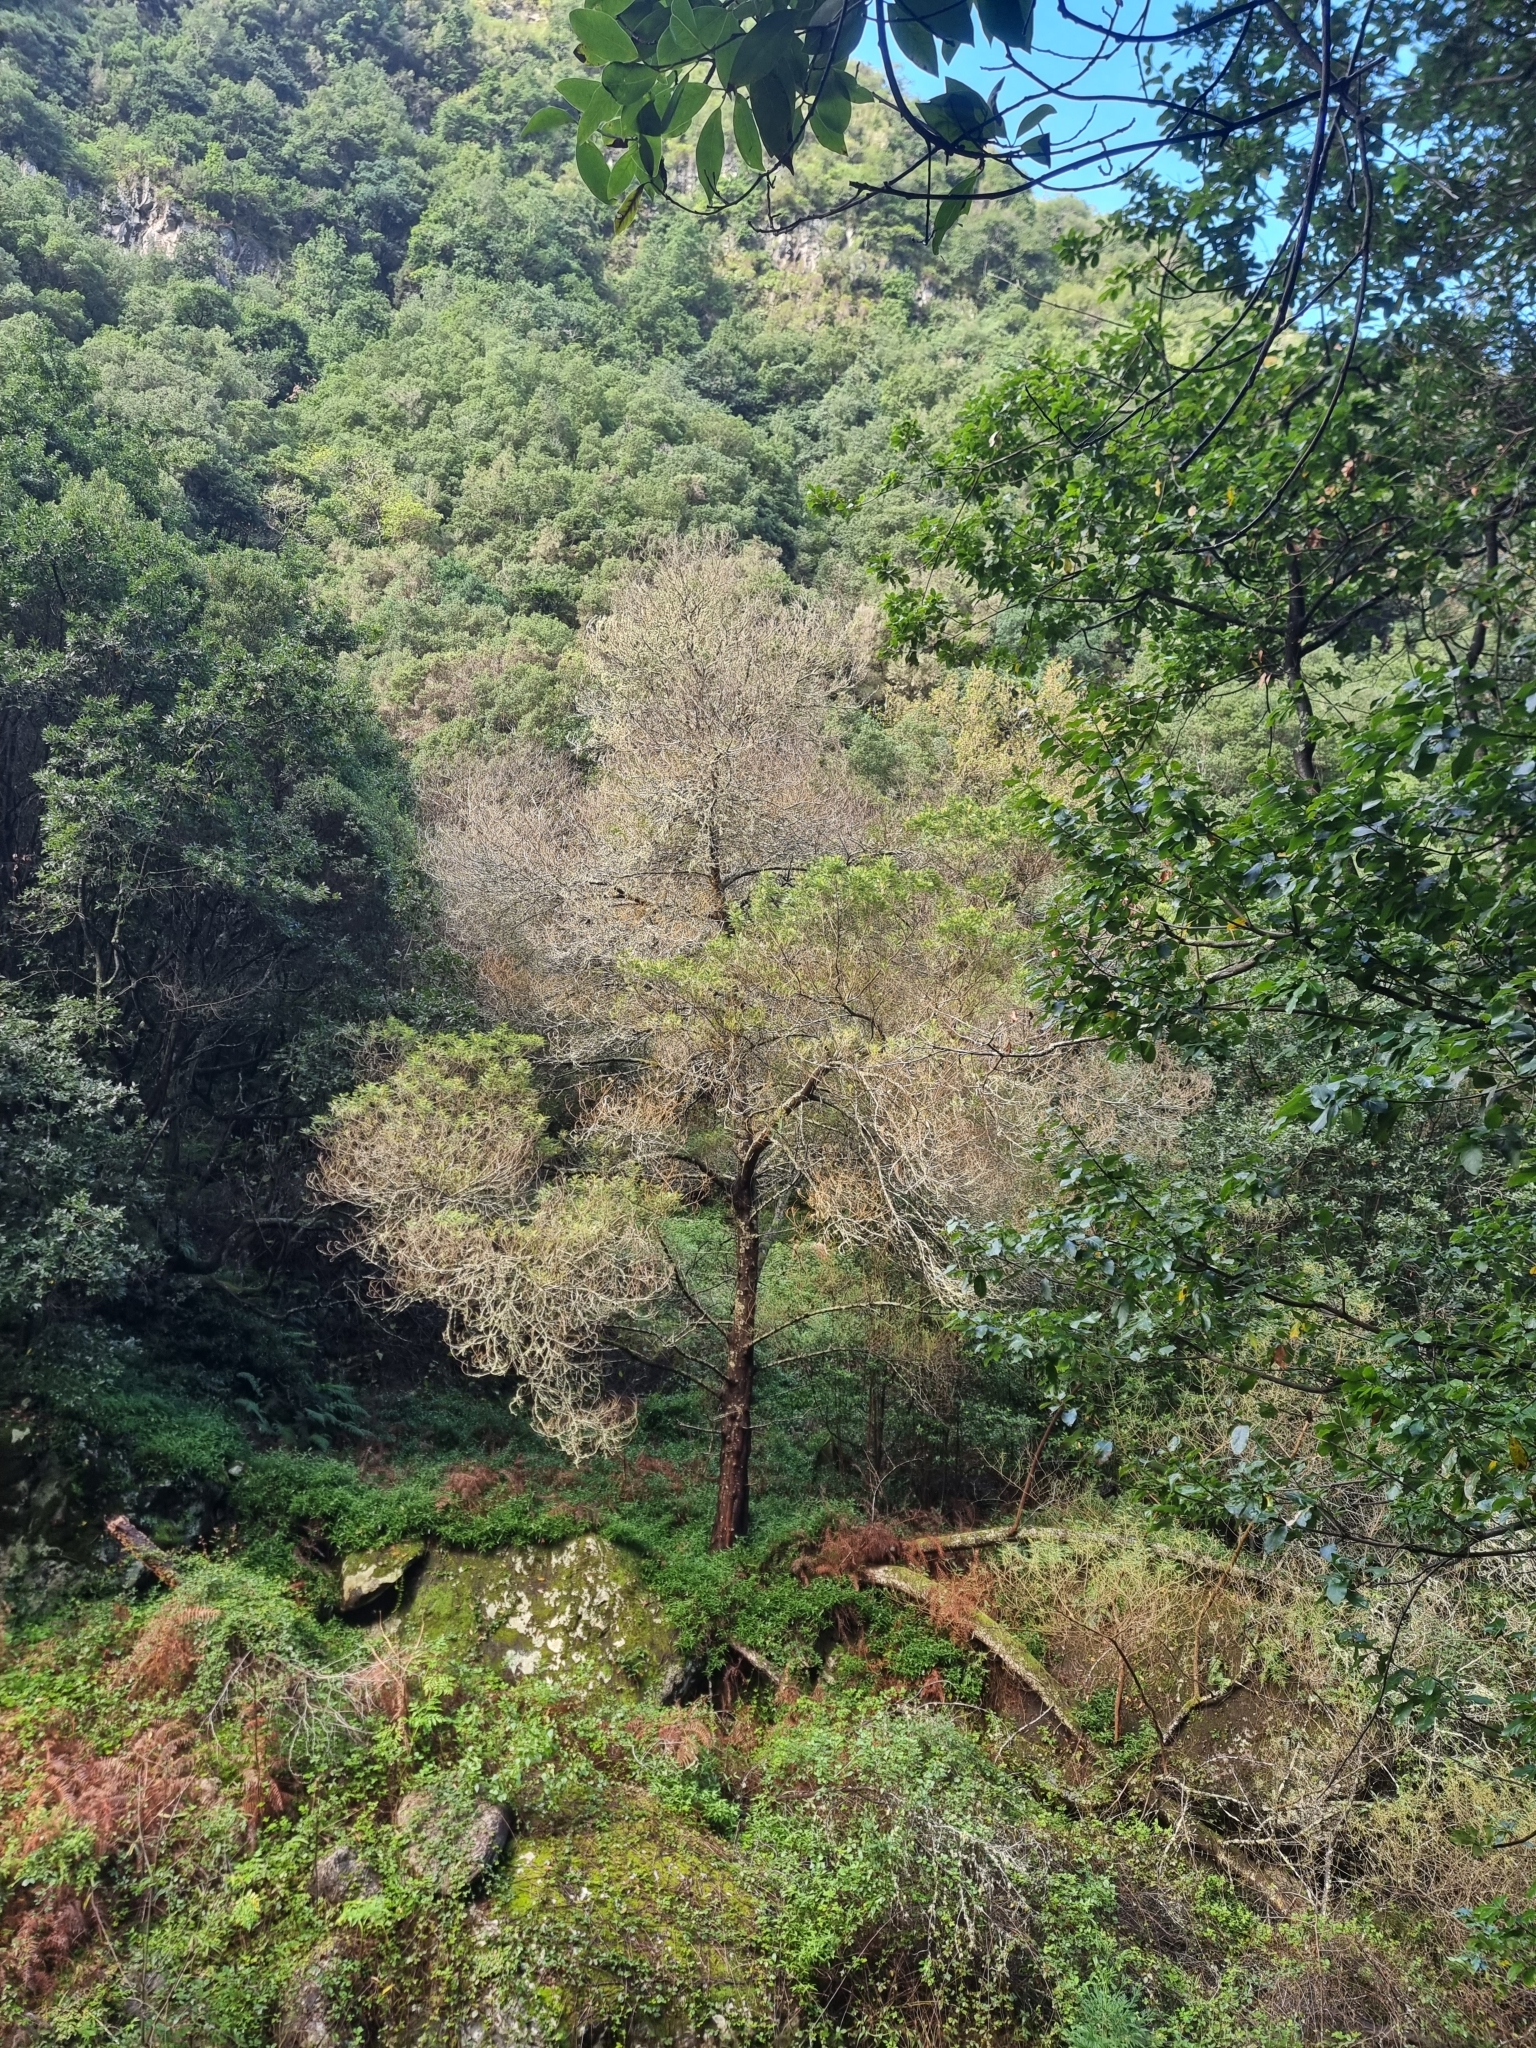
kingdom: Plantae
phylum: Tracheophyta
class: Magnoliopsida
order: Fabales
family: Fabaceae
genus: Acacia
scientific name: Acacia mearnsii
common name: Black wattle
